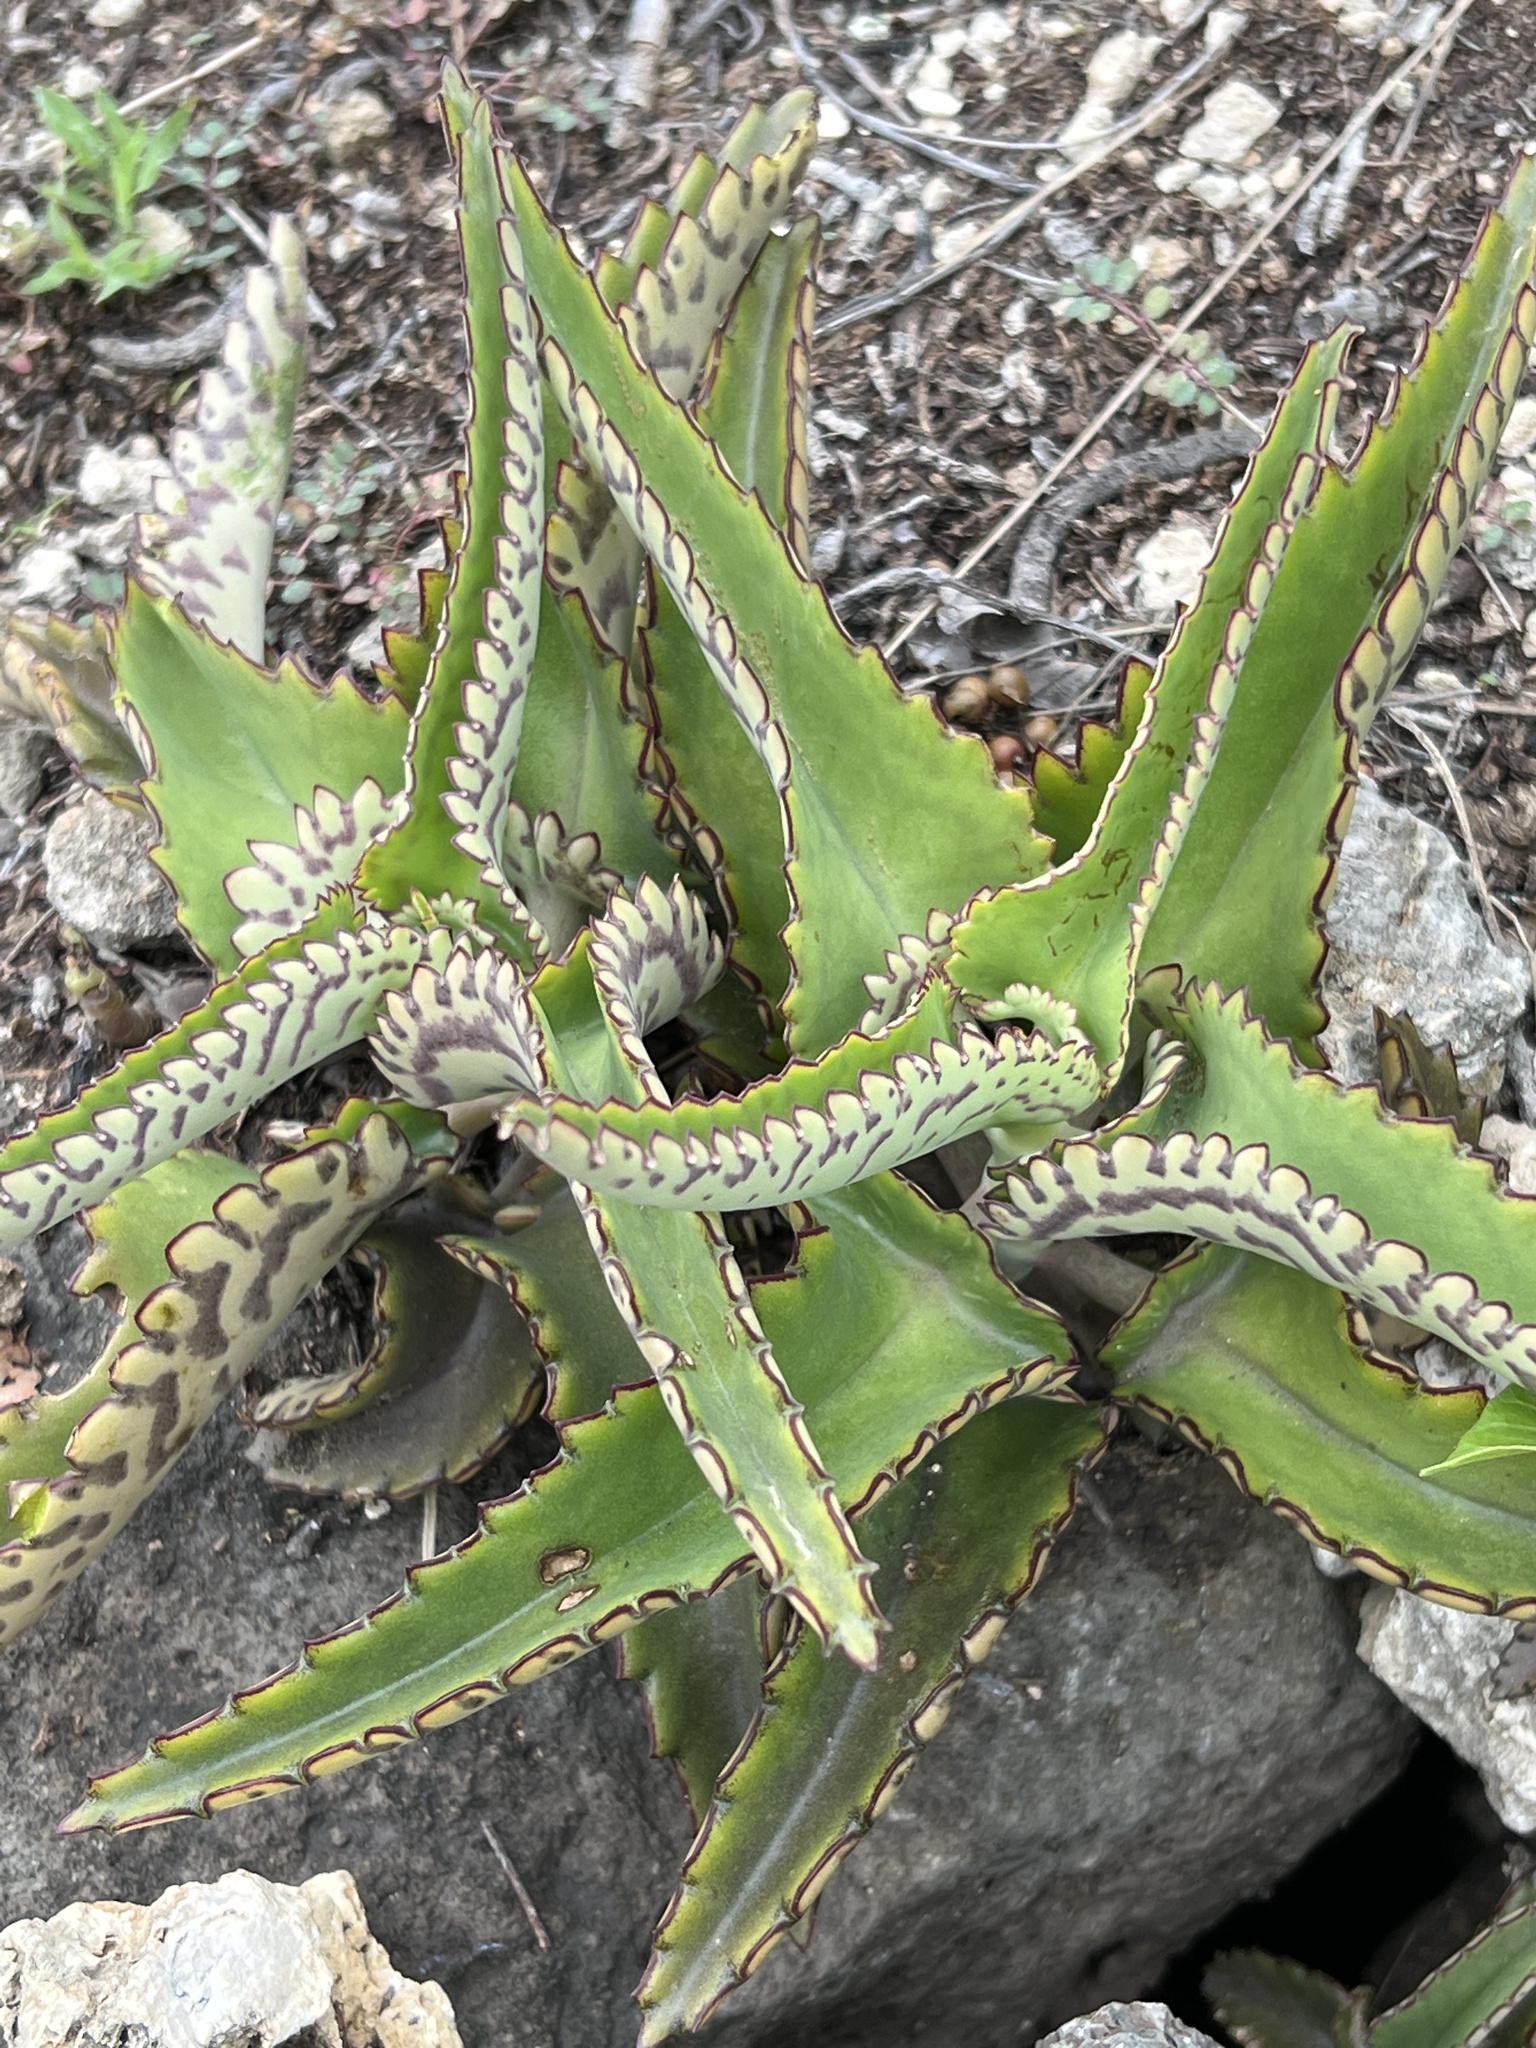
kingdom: Plantae
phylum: Tracheophyta
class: Magnoliopsida
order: Saxifragales
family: Crassulaceae
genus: Kalanchoe
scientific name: Kalanchoe daigremontiana
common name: Devil's backbone
